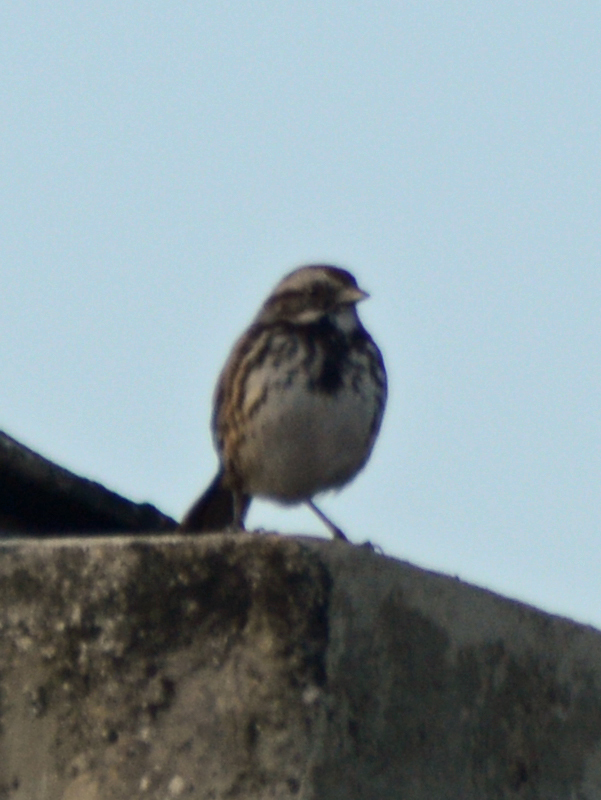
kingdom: Animalia
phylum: Chordata
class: Aves
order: Passeriformes
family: Passerellidae
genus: Melospiza
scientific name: Melospiza melodia
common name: Song sparrow
